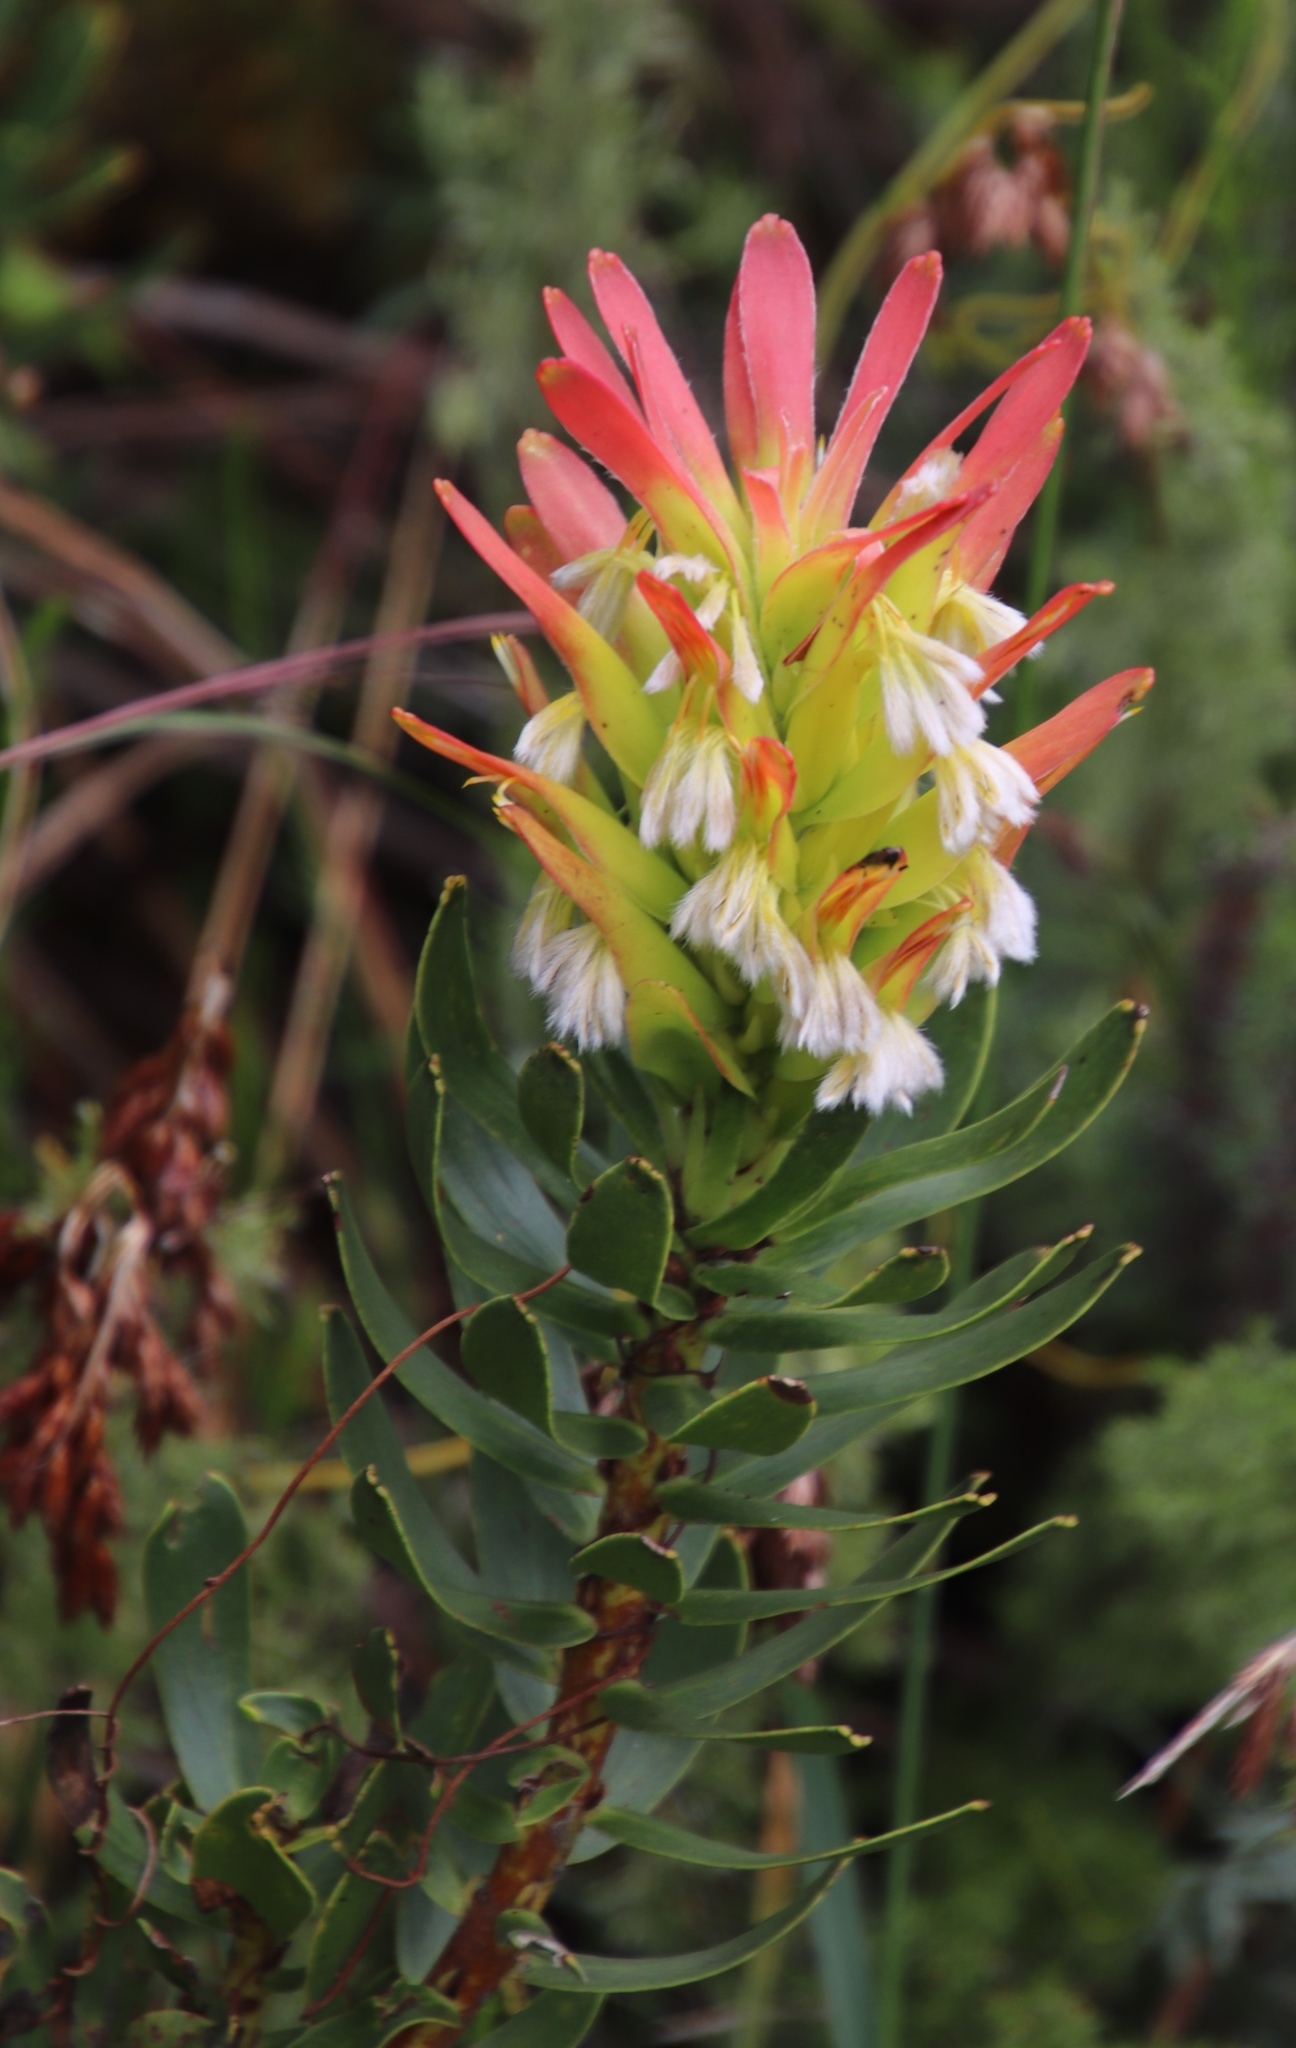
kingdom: Plantae
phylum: Tracheophyta
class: Magnoliopsida
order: Proteales
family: Proteaceae
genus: Mimetes
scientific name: Mimetes cucullatus
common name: Common pagoda
